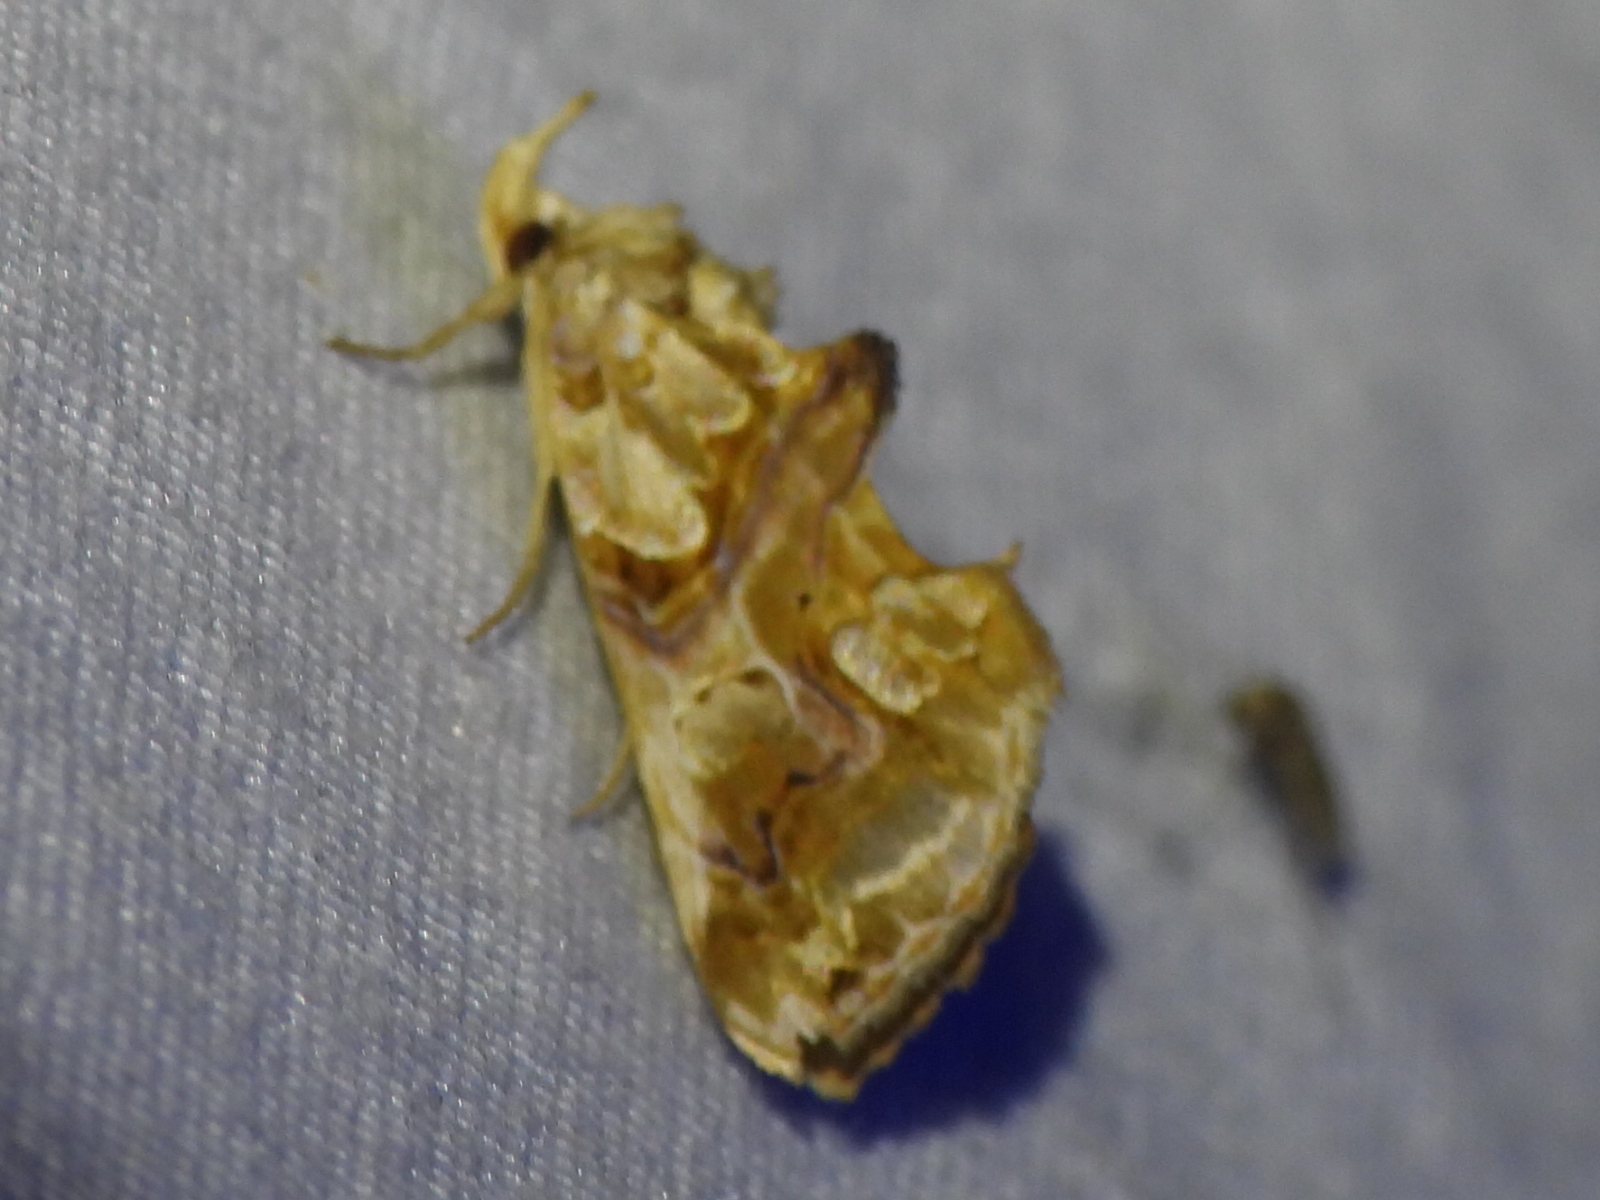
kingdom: Animalia
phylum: Arthropoda
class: Insecta
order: Lepidoptera
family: Erebidae
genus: Plusiodonta
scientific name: Plusiodonta compressipalpis
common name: Moonseed moth
